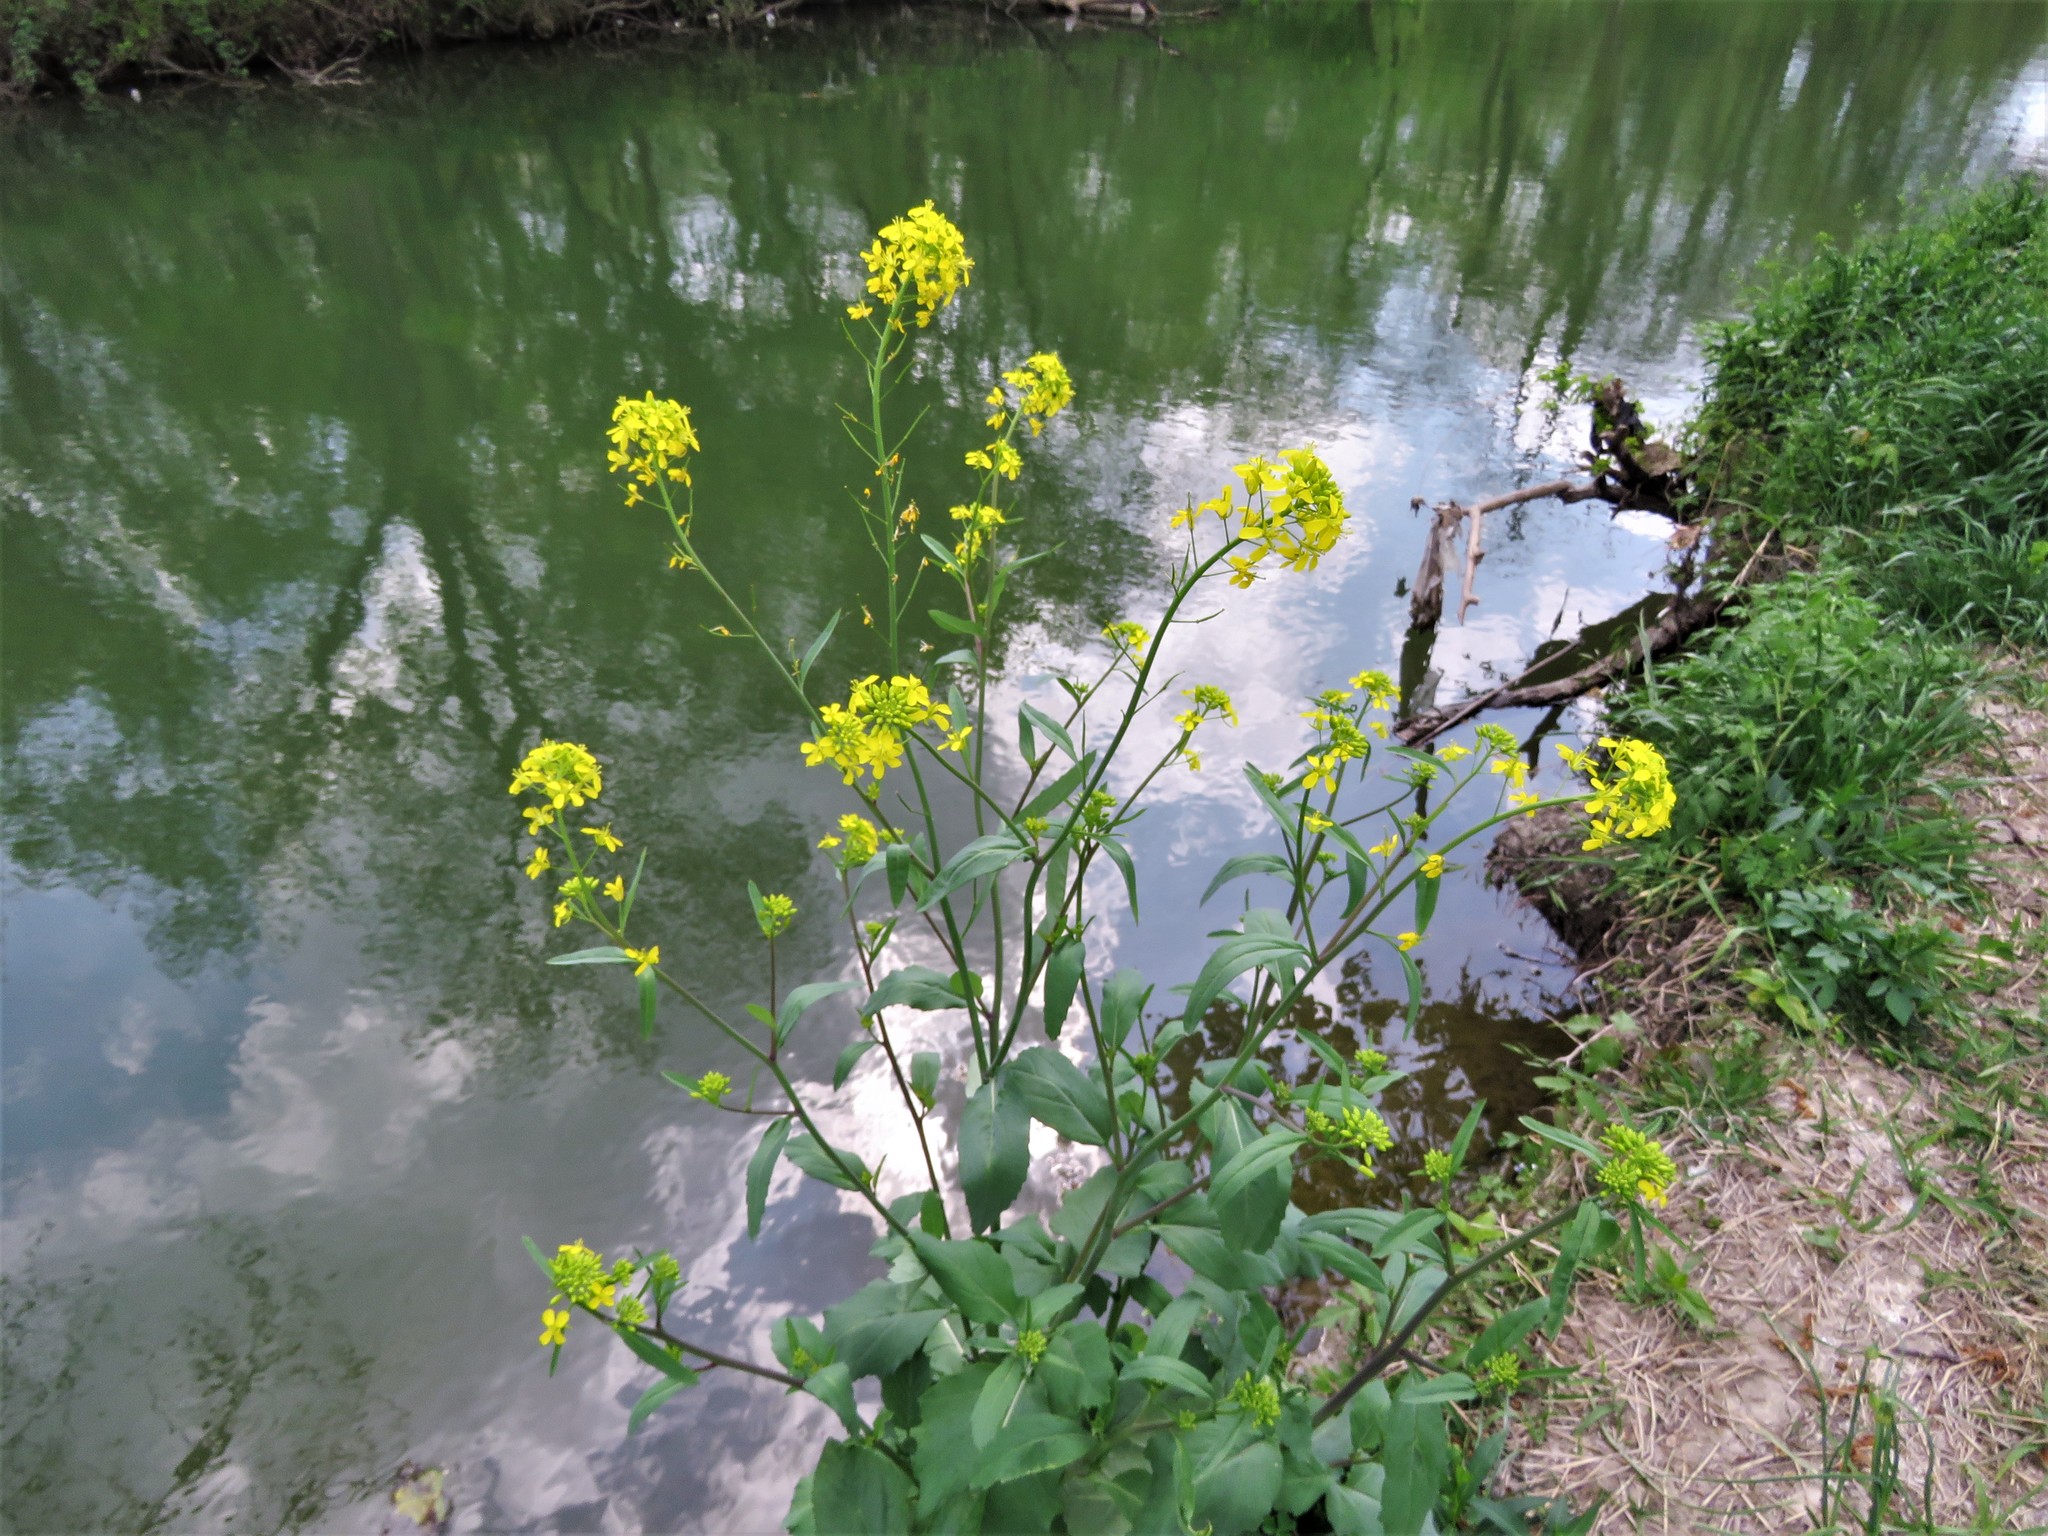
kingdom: Plantae
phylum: Tracheophyta
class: Magnoliopsida
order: Brassicales
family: Brassicaceae
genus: Rapistrum
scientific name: Rapistrum rugosum
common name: Annual bastardcabbage
